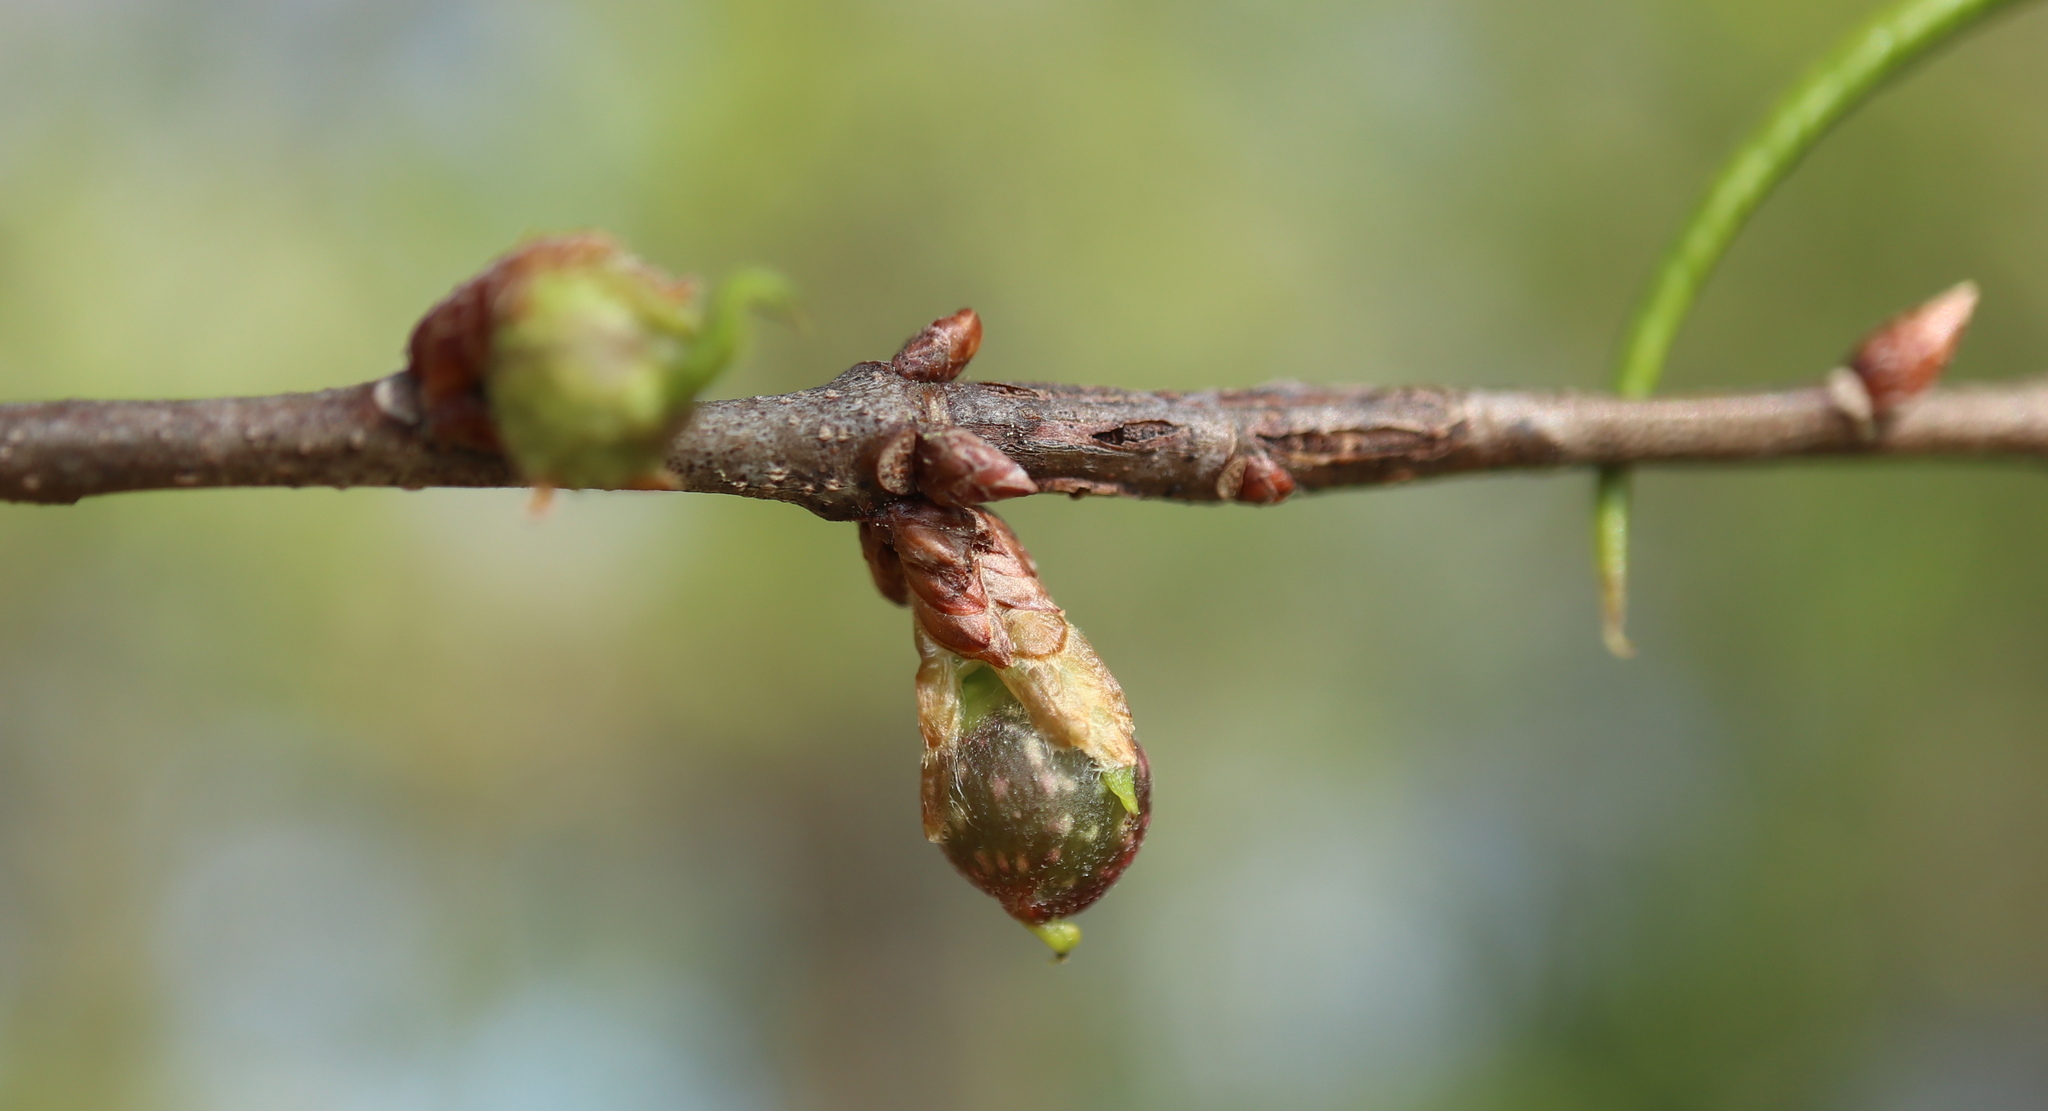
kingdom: Animalia
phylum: Arthropoda
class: Insecta
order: Hymenoptera
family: Cynipidae
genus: Dryocosmus
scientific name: Dryocosmus
